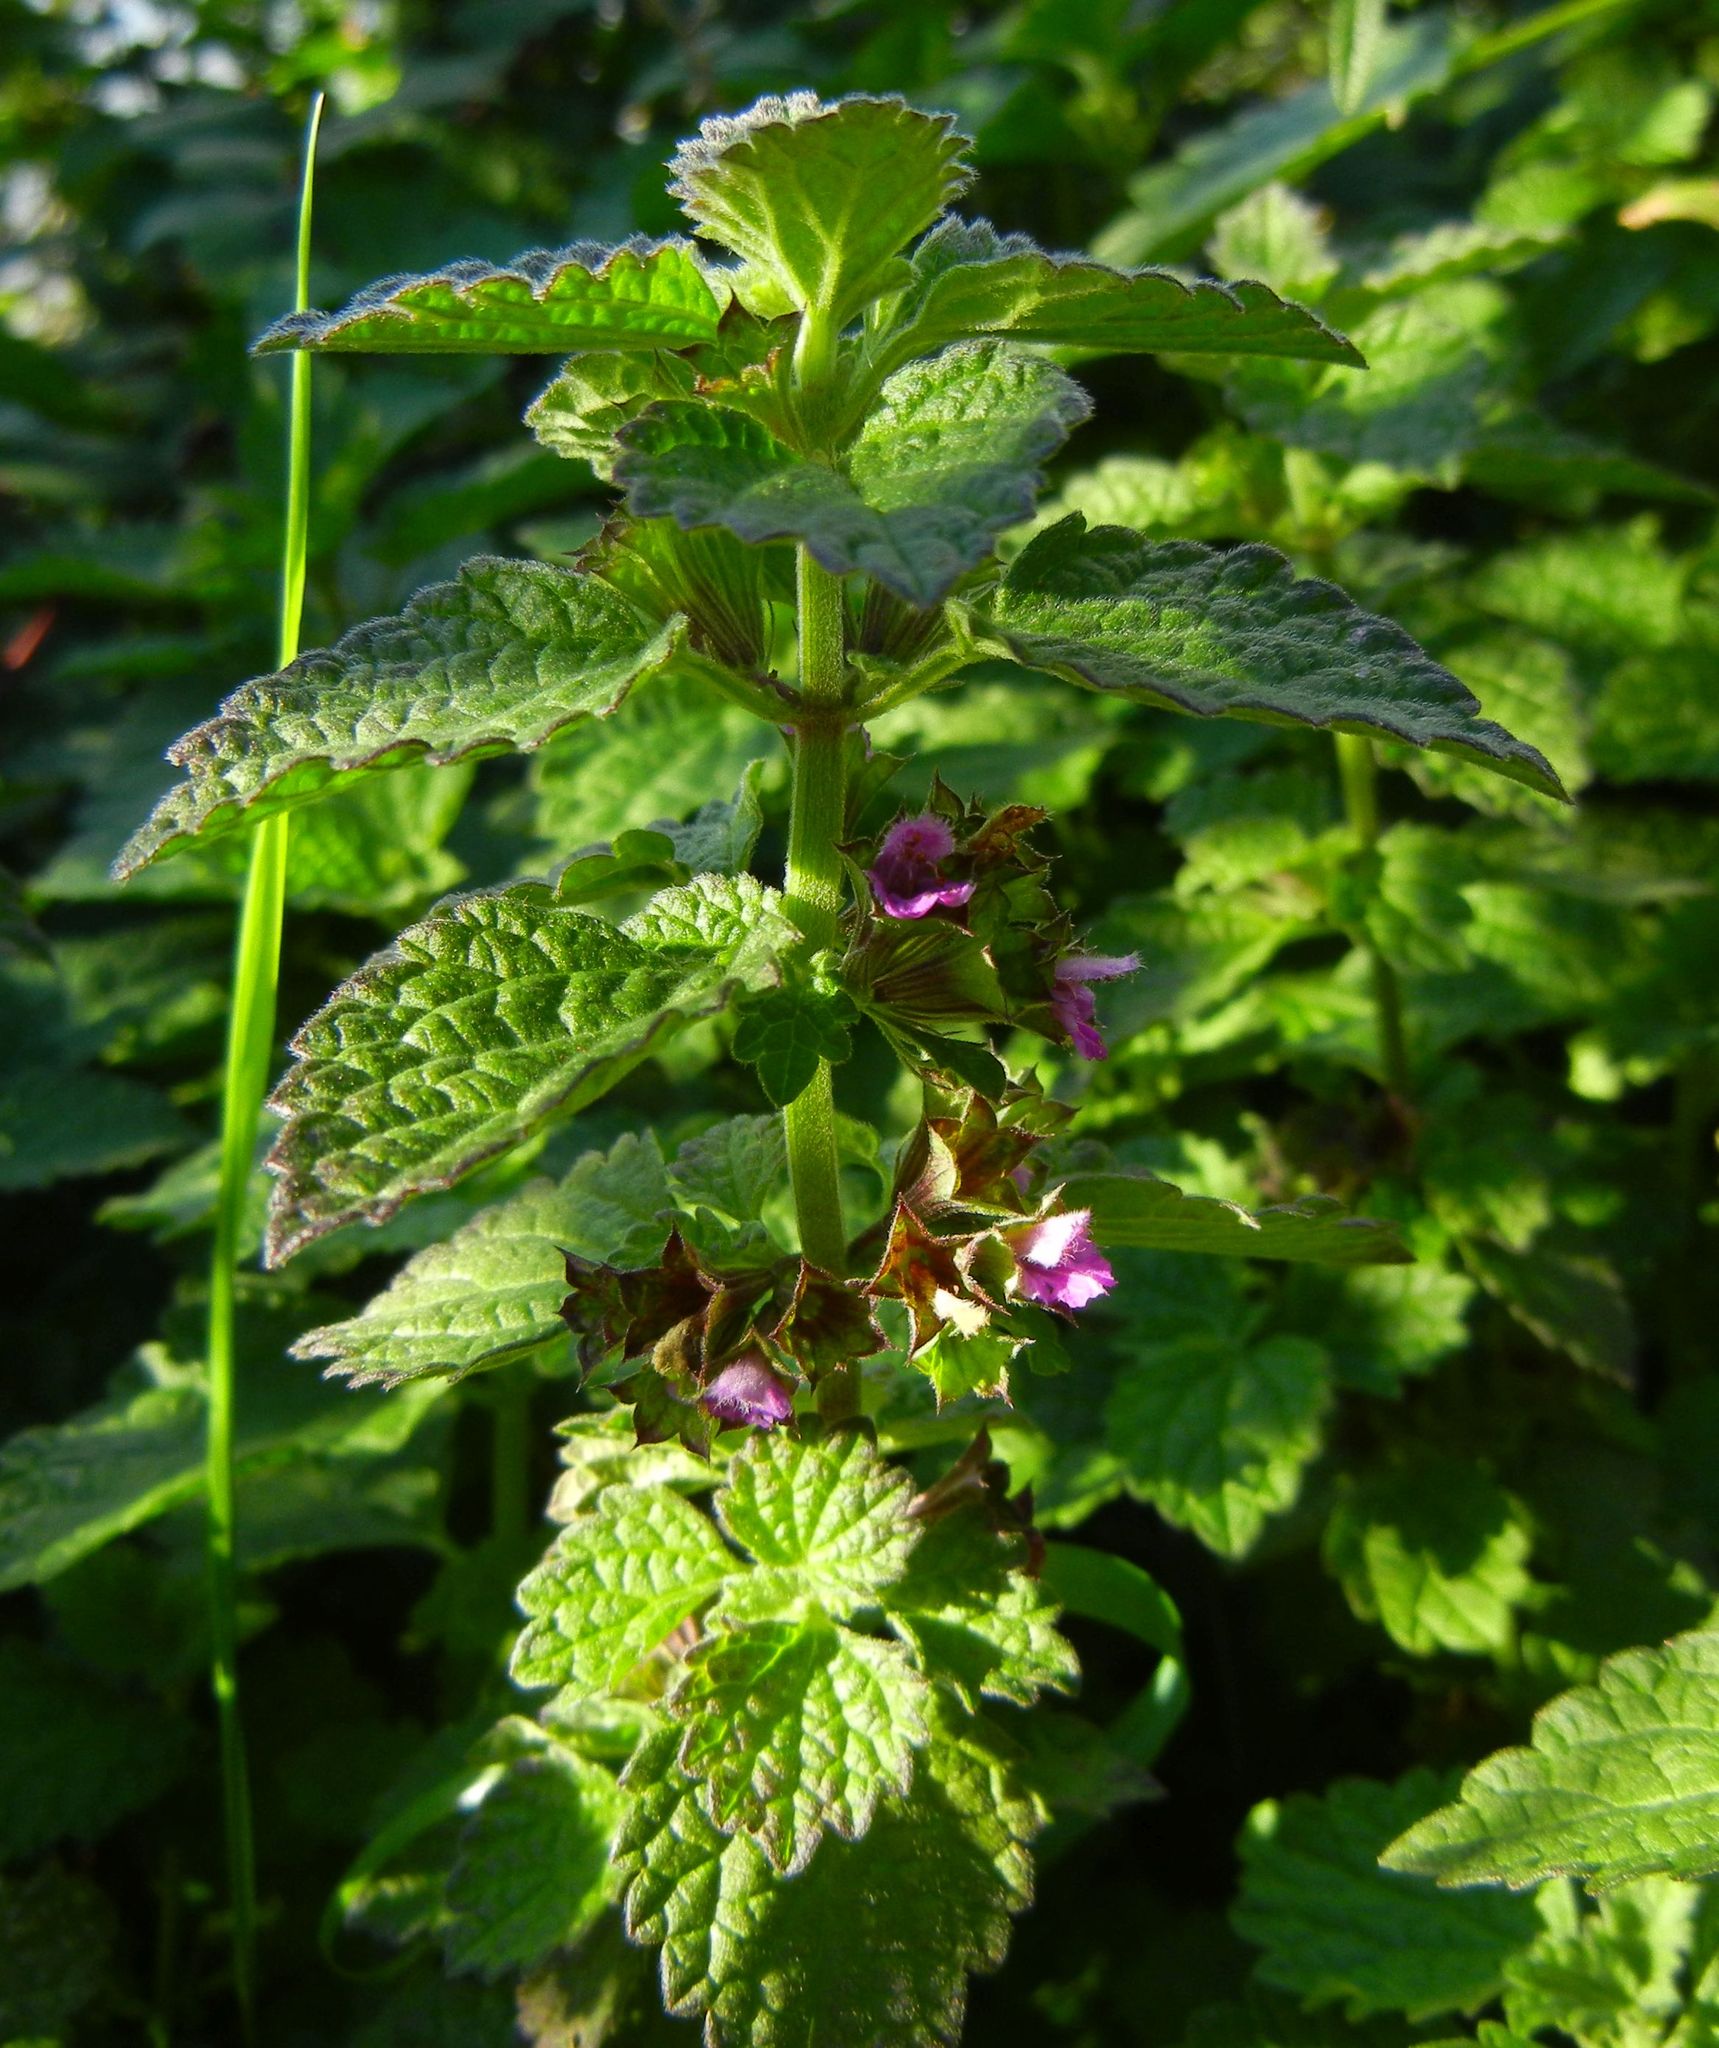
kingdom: Plantae
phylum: Tracheophyta
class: Magnoliopsida
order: Lamiales
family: Lamiaceae
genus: Ballota
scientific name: Ballota nigra
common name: Black horehound
